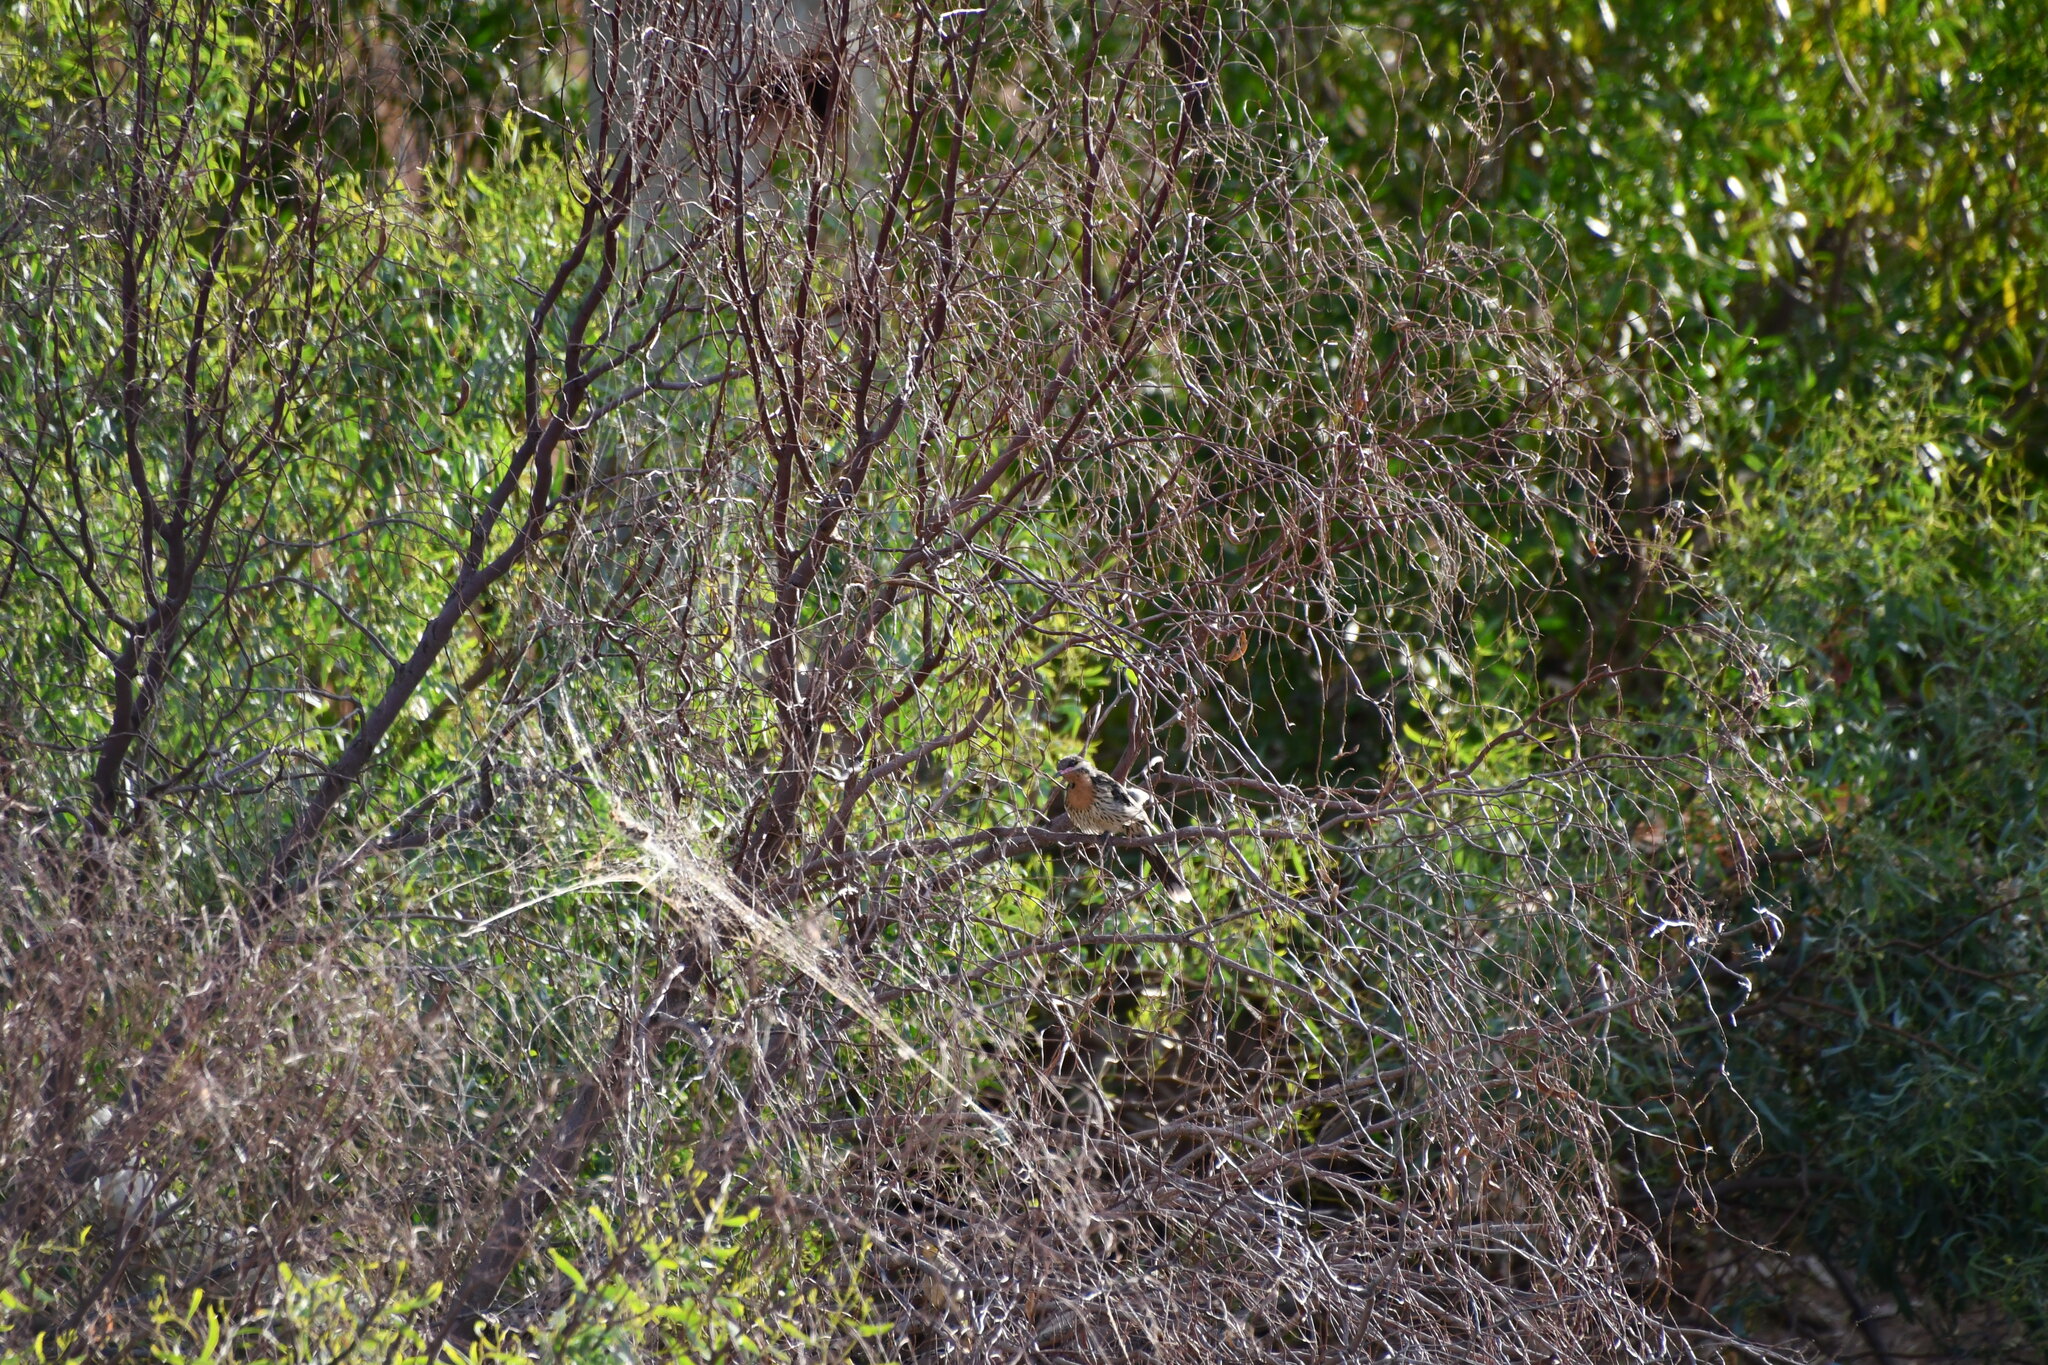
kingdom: Animalia
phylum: Chordata
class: Aves
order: Passeriformes
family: Meliphagidae
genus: Acanthagenys
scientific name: Acanthagenys rufogularis
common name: Spiny-cheeked honeyeater
